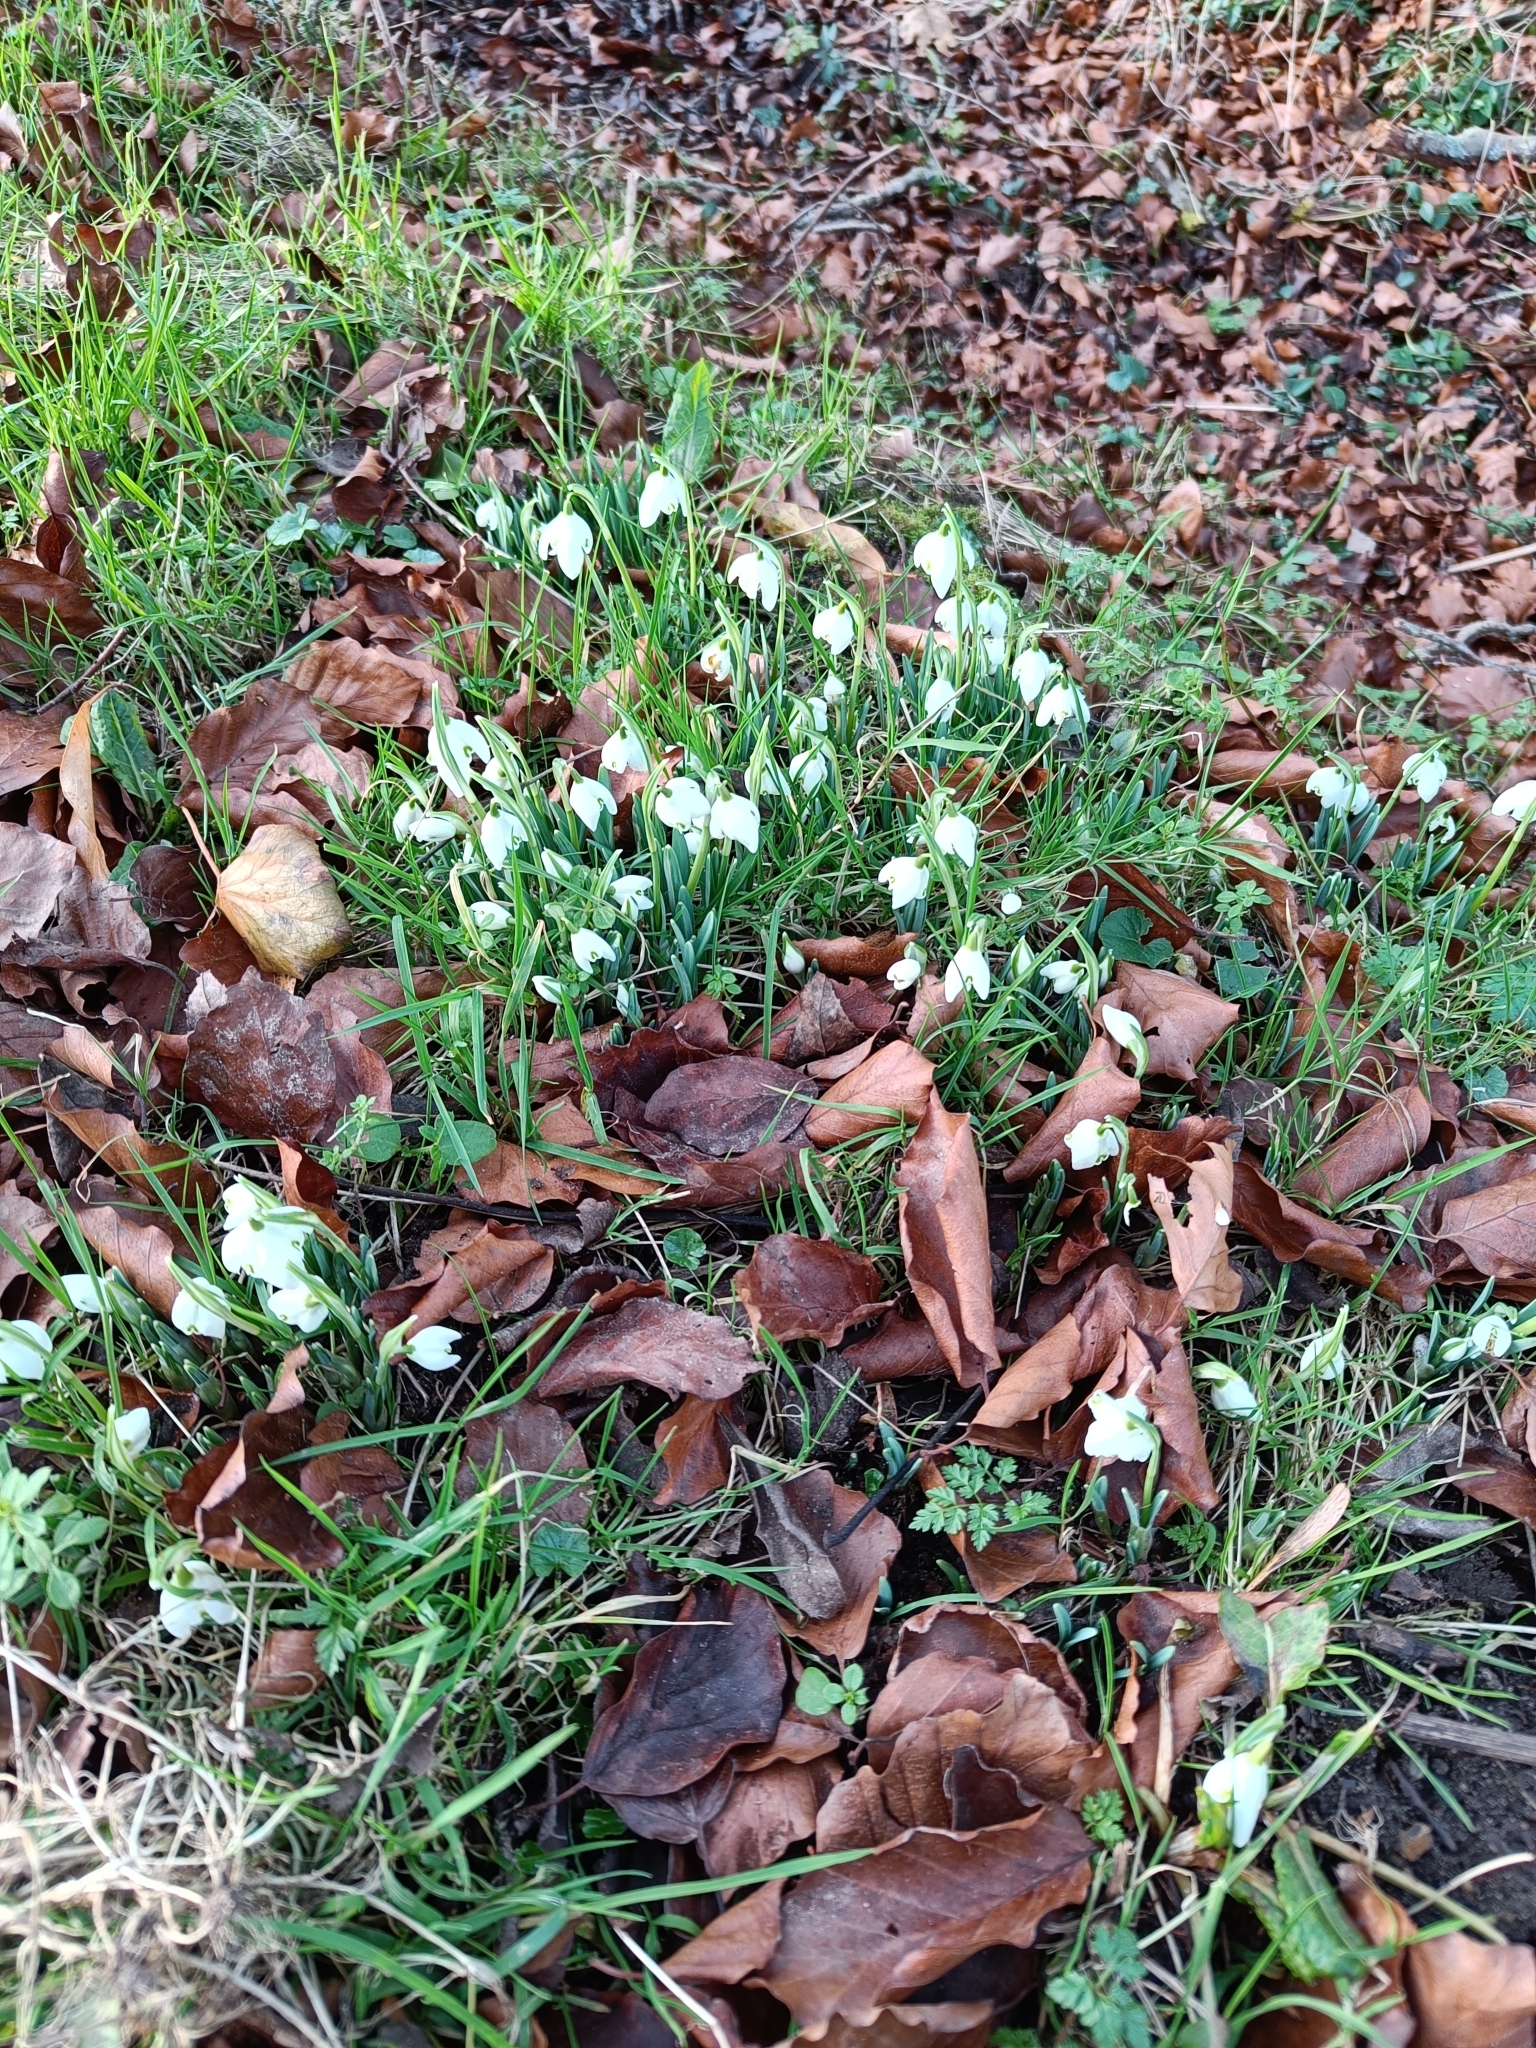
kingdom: Plantae
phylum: Tracheophyta
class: Liliopsida
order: Asparagales
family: Amaryllidaceae
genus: Galanthus
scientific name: Galanthus nivalis
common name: Snowdrop
